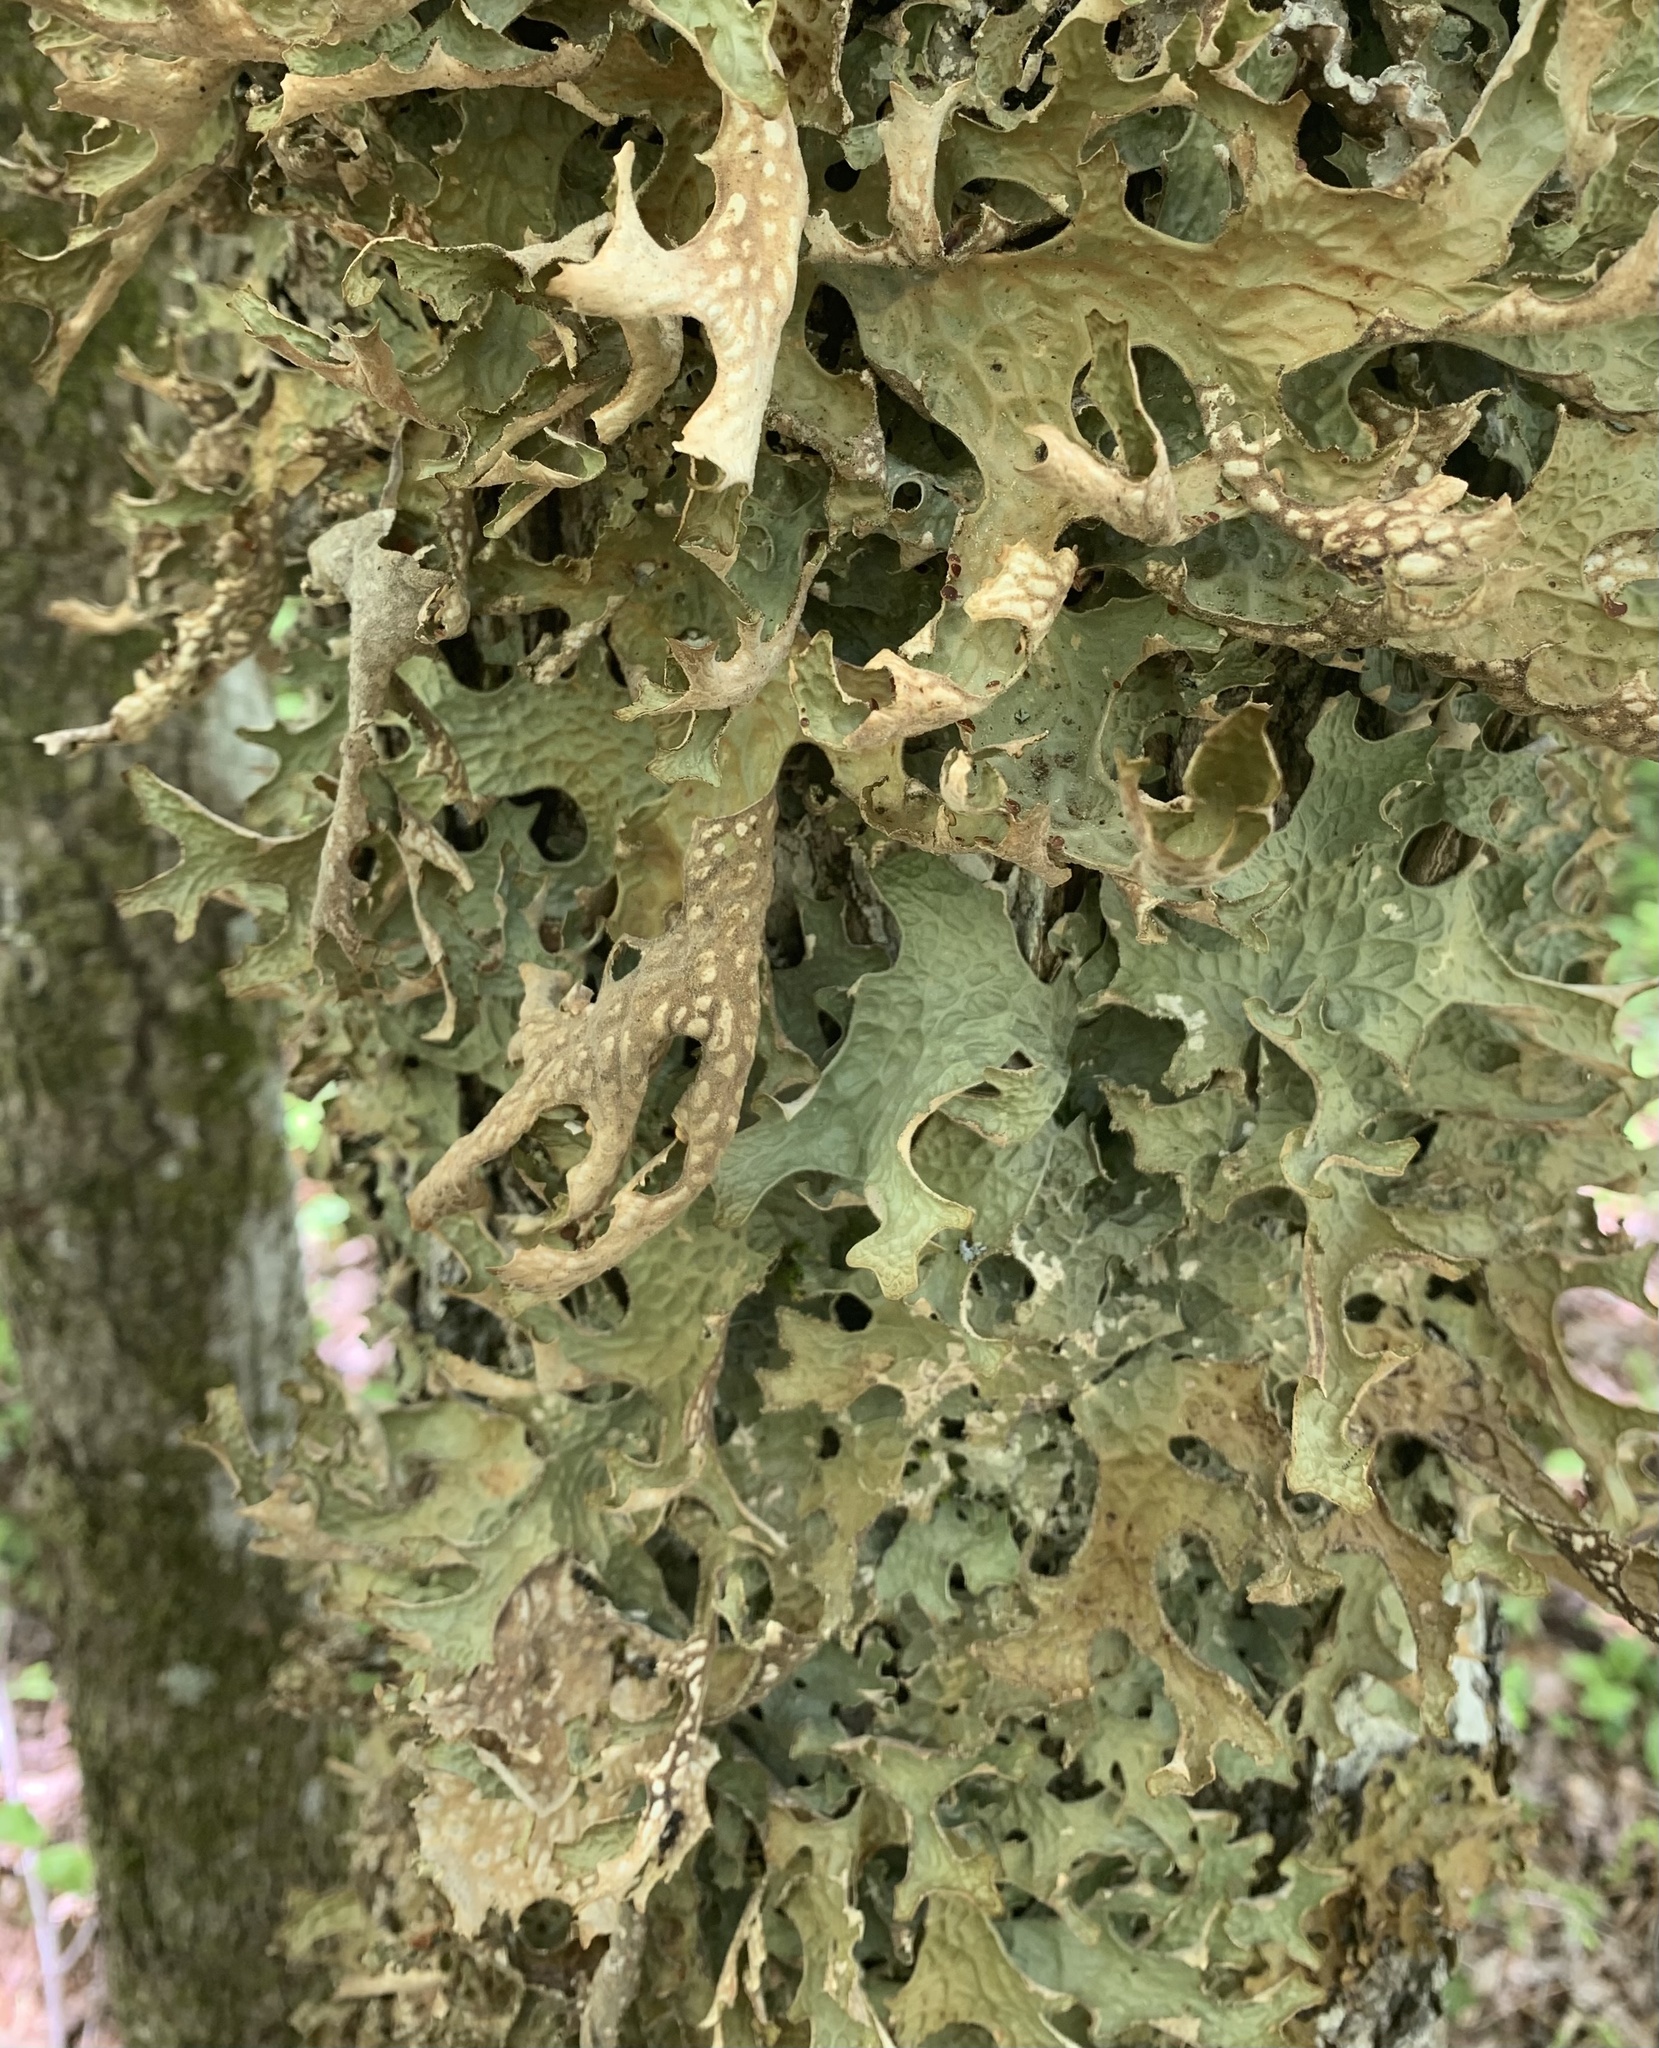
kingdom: Fungi
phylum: Ascomycota
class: Lecanoromycetes
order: Peltigerales
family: Lobariaceae
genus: Lobaria
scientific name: Lobaria pulmonaria
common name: Lungwort
